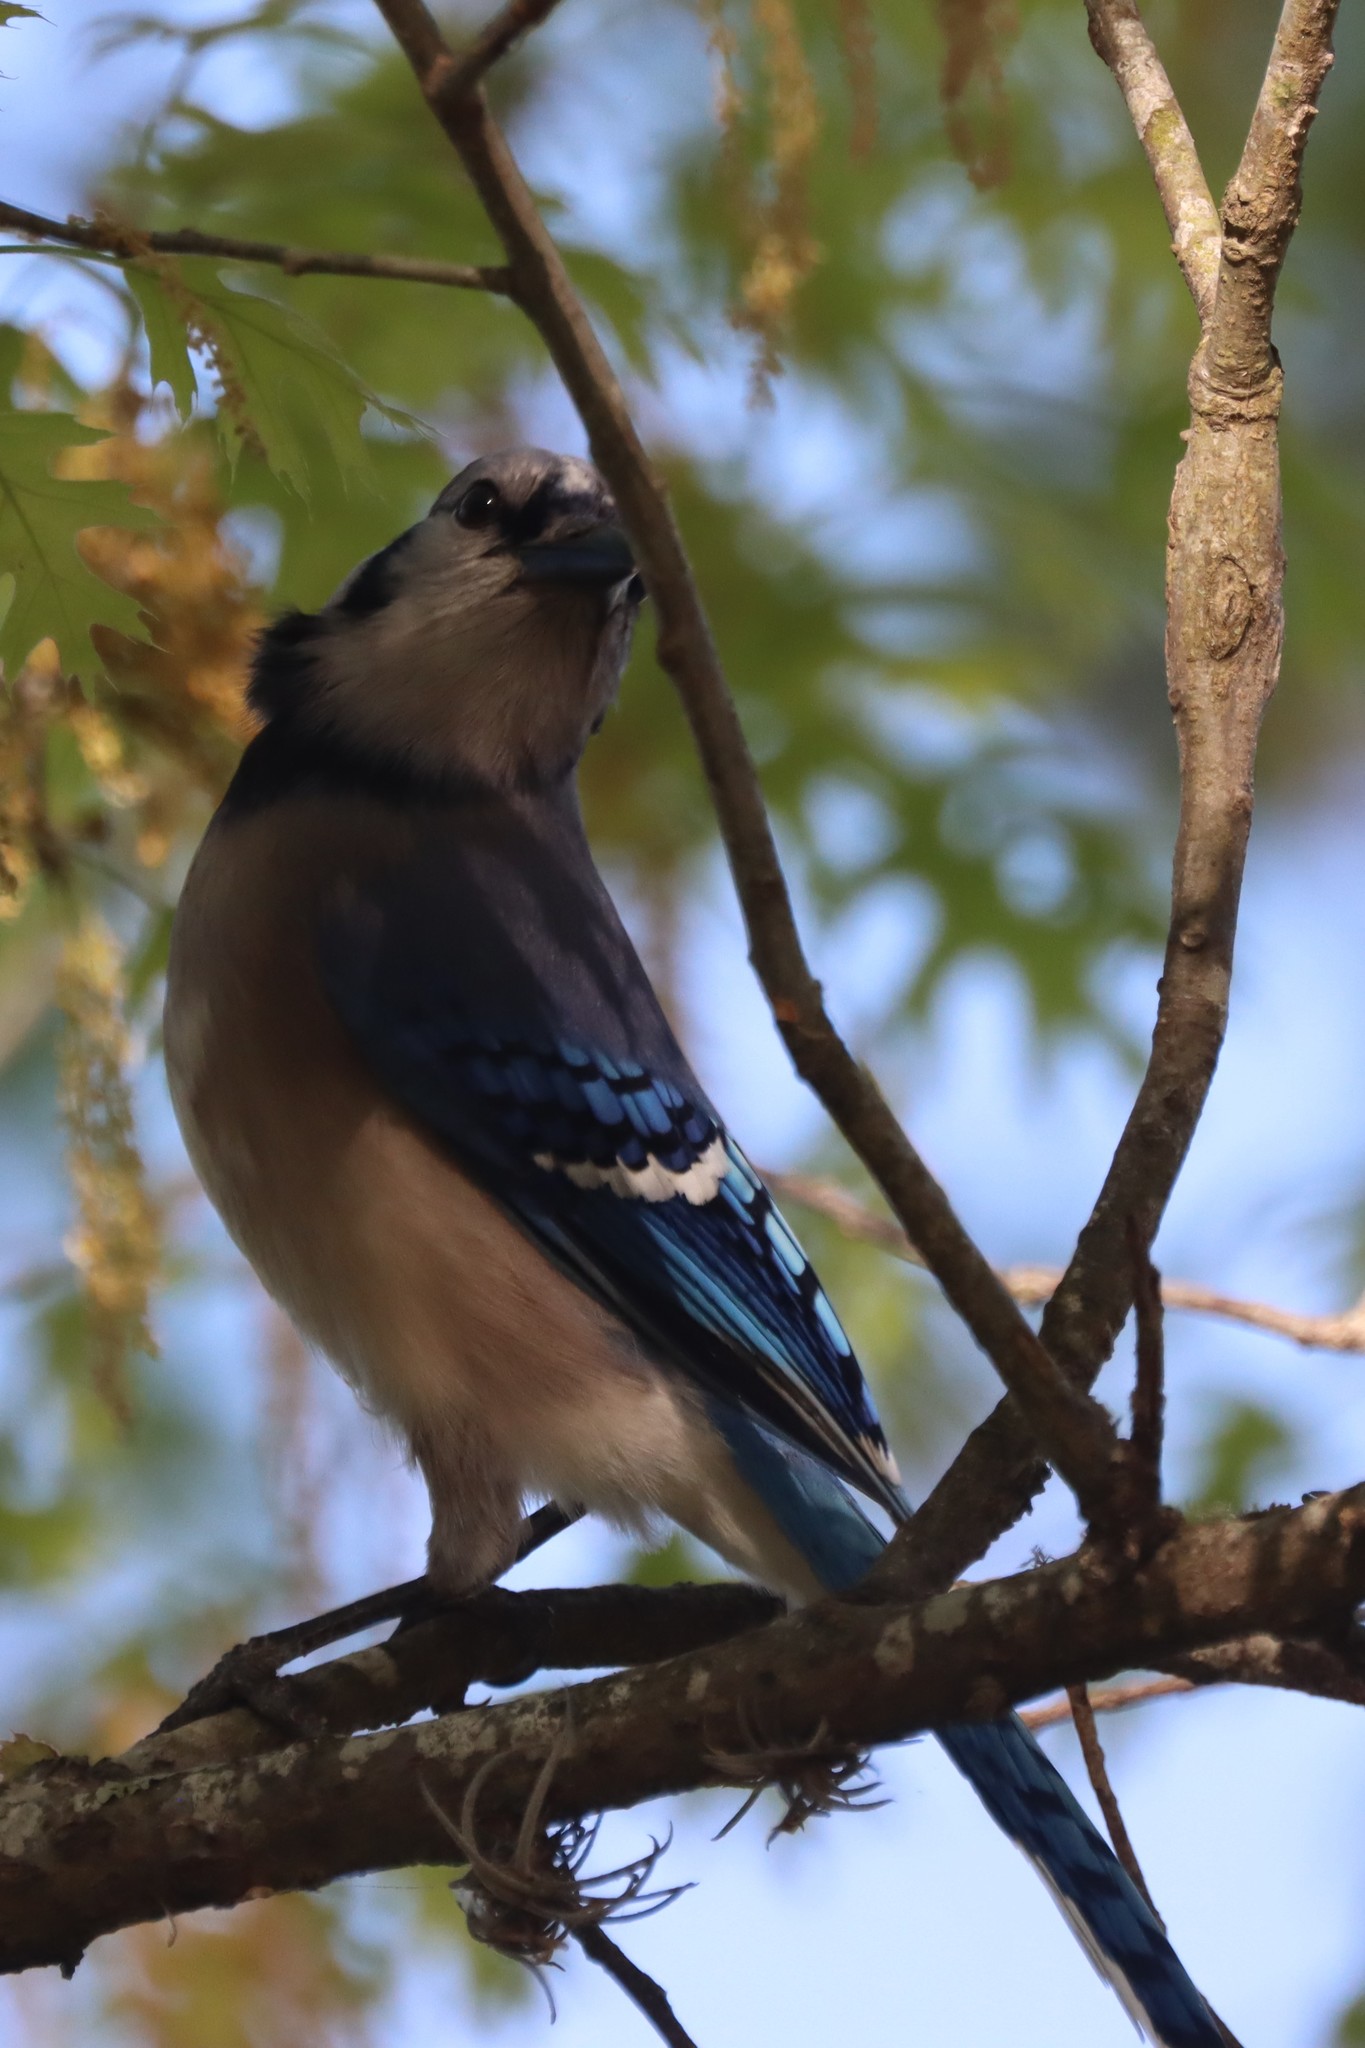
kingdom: Animalia
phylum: Chordata
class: Aves
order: Passeriformes
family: Corvidae
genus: Cyanocitta
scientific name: Cyanocitta cristata
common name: Blue jay
